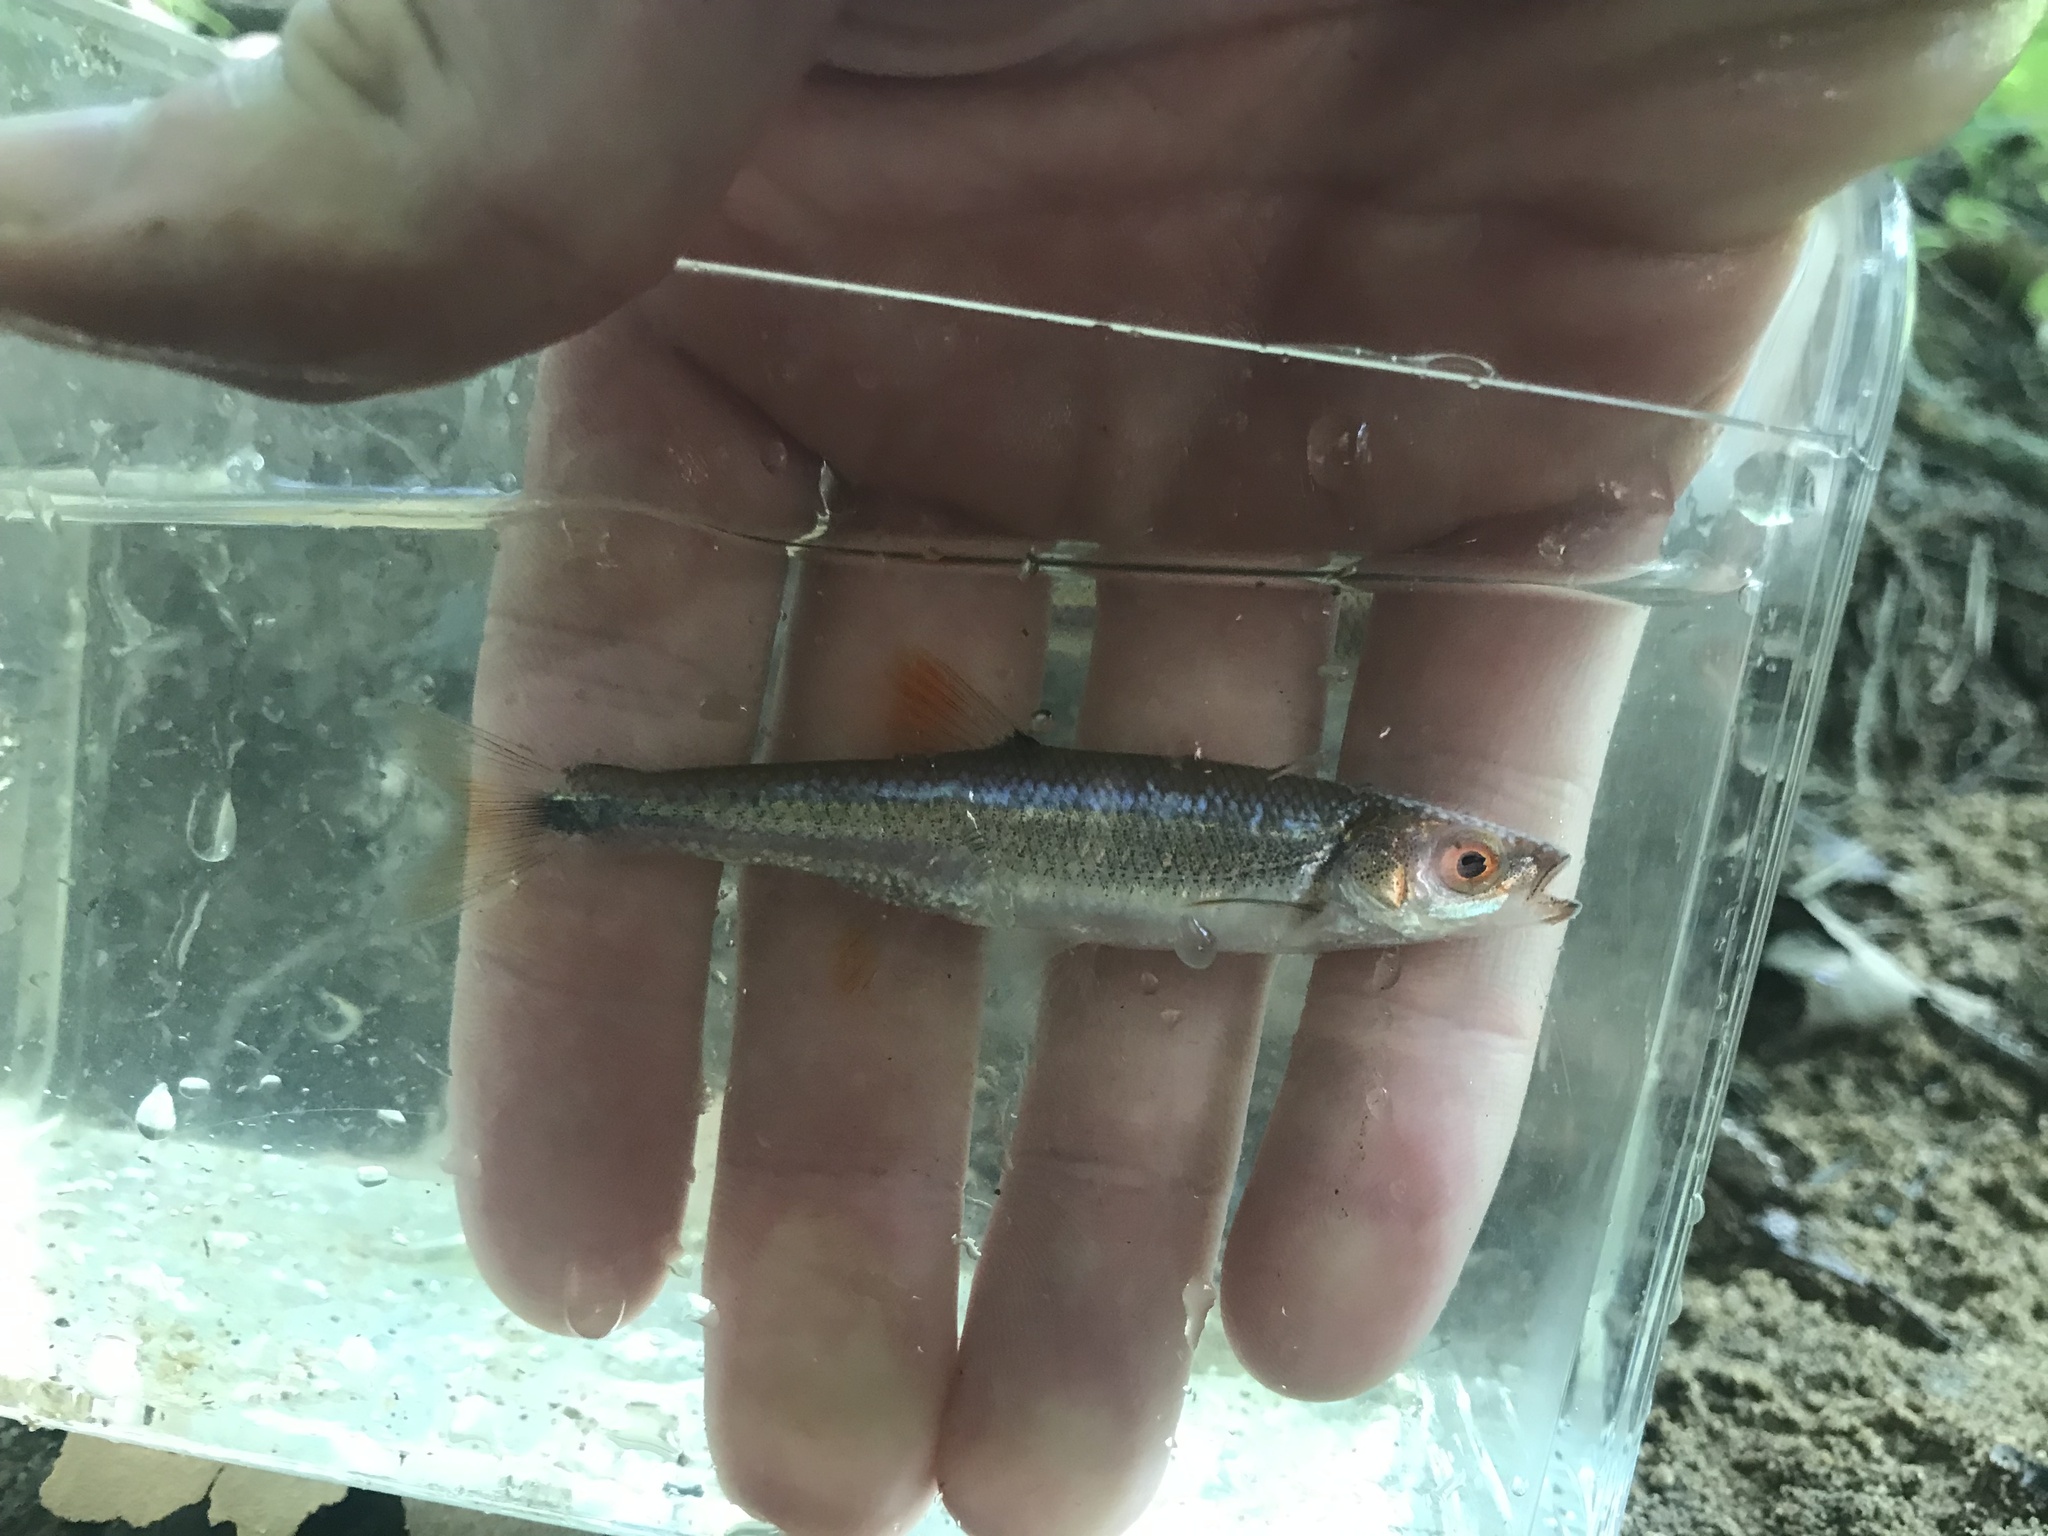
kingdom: Animalia
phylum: Chordata
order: Cypriniformes
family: Cyprinidae
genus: Lythrurus
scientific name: Lythrurus matutinus
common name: Pinewoods shiner
